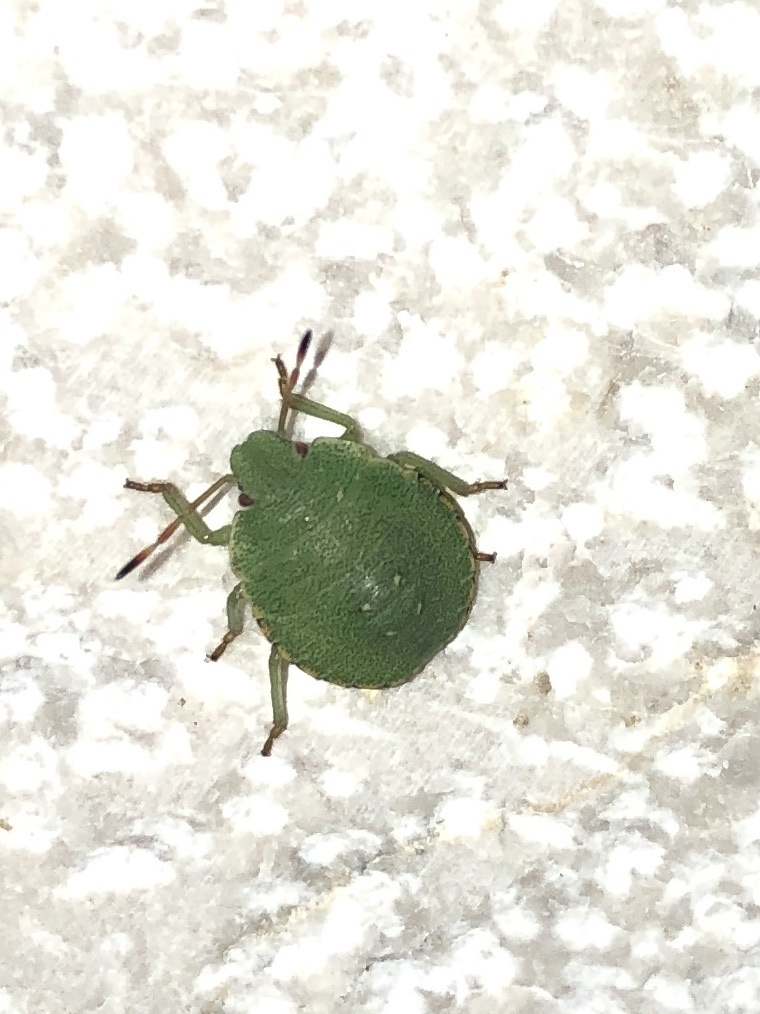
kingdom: Animalia
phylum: Arthropoda
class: Insecta
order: Hemiptera
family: Pentatomidae
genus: Palomena
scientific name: Palomena prasina
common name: Green shieldbug
